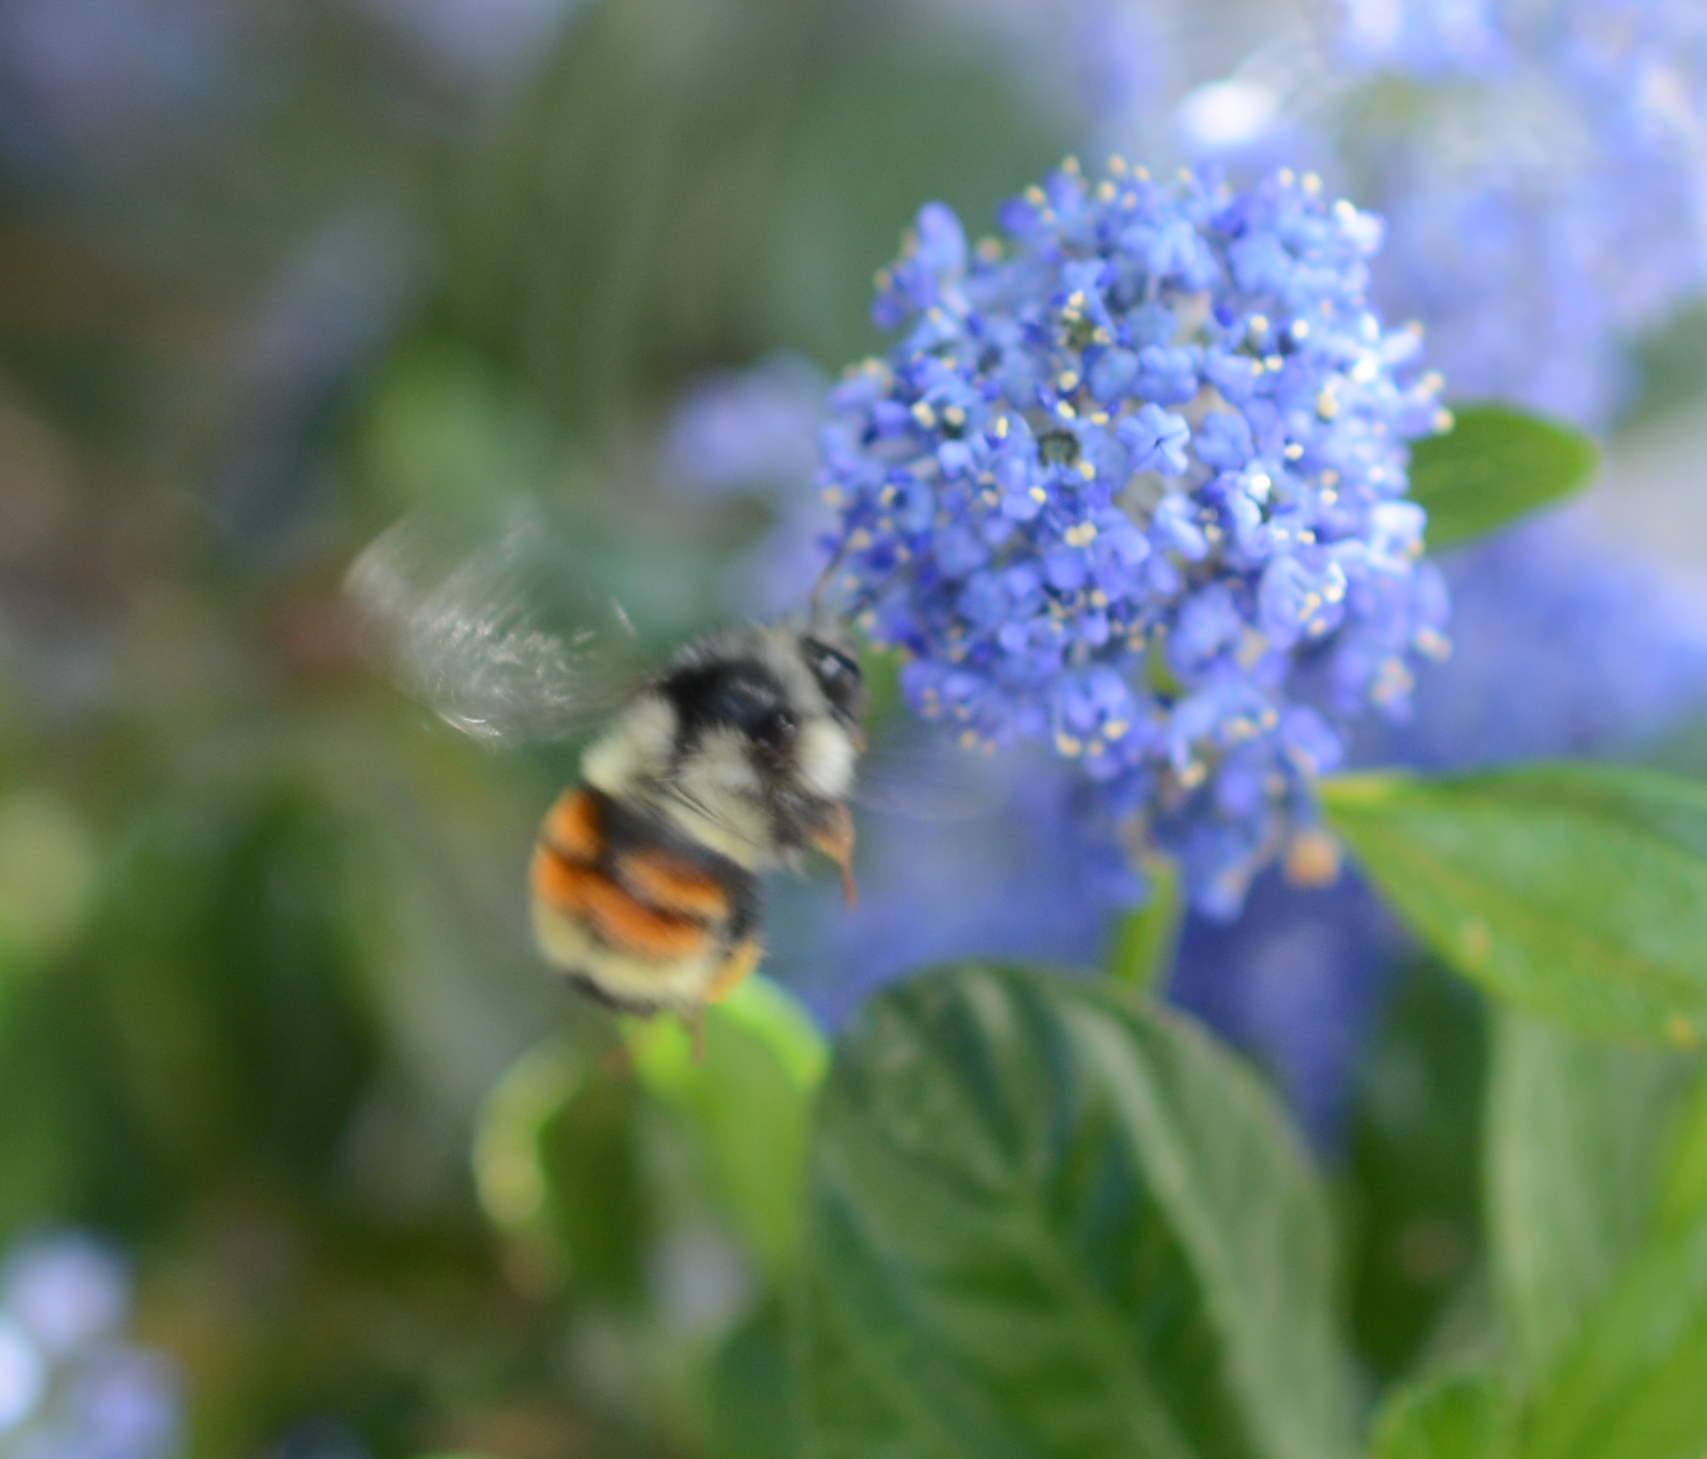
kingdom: Animalia
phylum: Arthropoda
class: Insecta
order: Hymenoptera
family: Apidae
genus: Bombus
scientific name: Bombus vancouverensis
